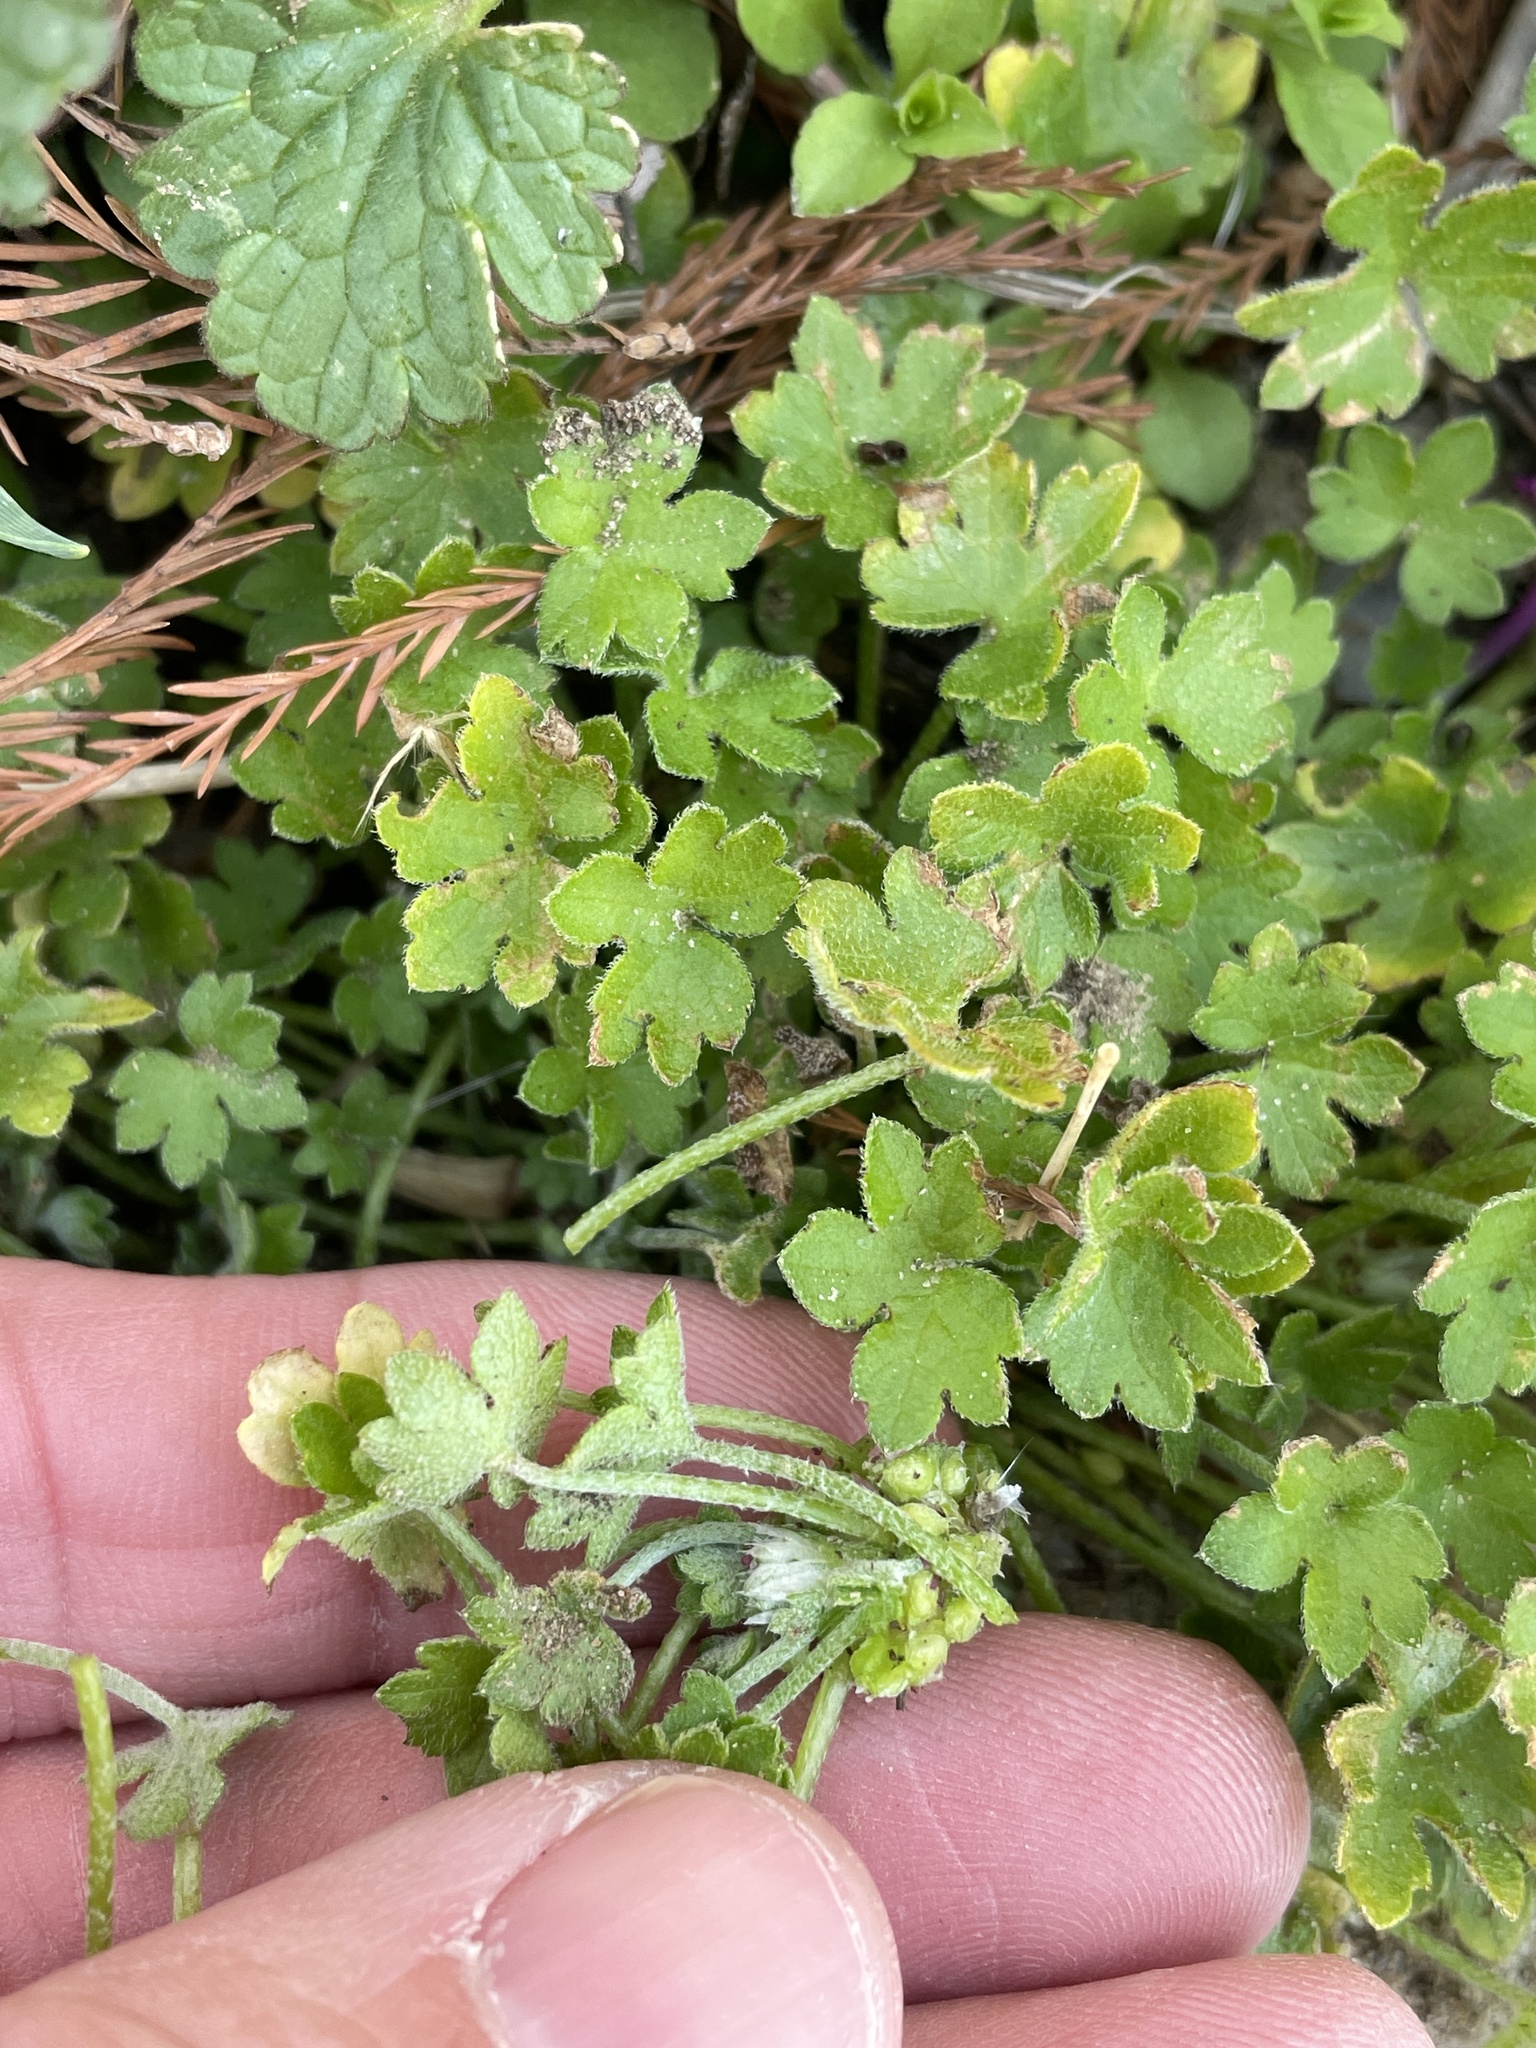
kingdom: Plantae
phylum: Tracheophyta
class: Magnoliopsida
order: Apiales
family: Apiaceae
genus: Bowlesia
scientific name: Bowlesia incana
